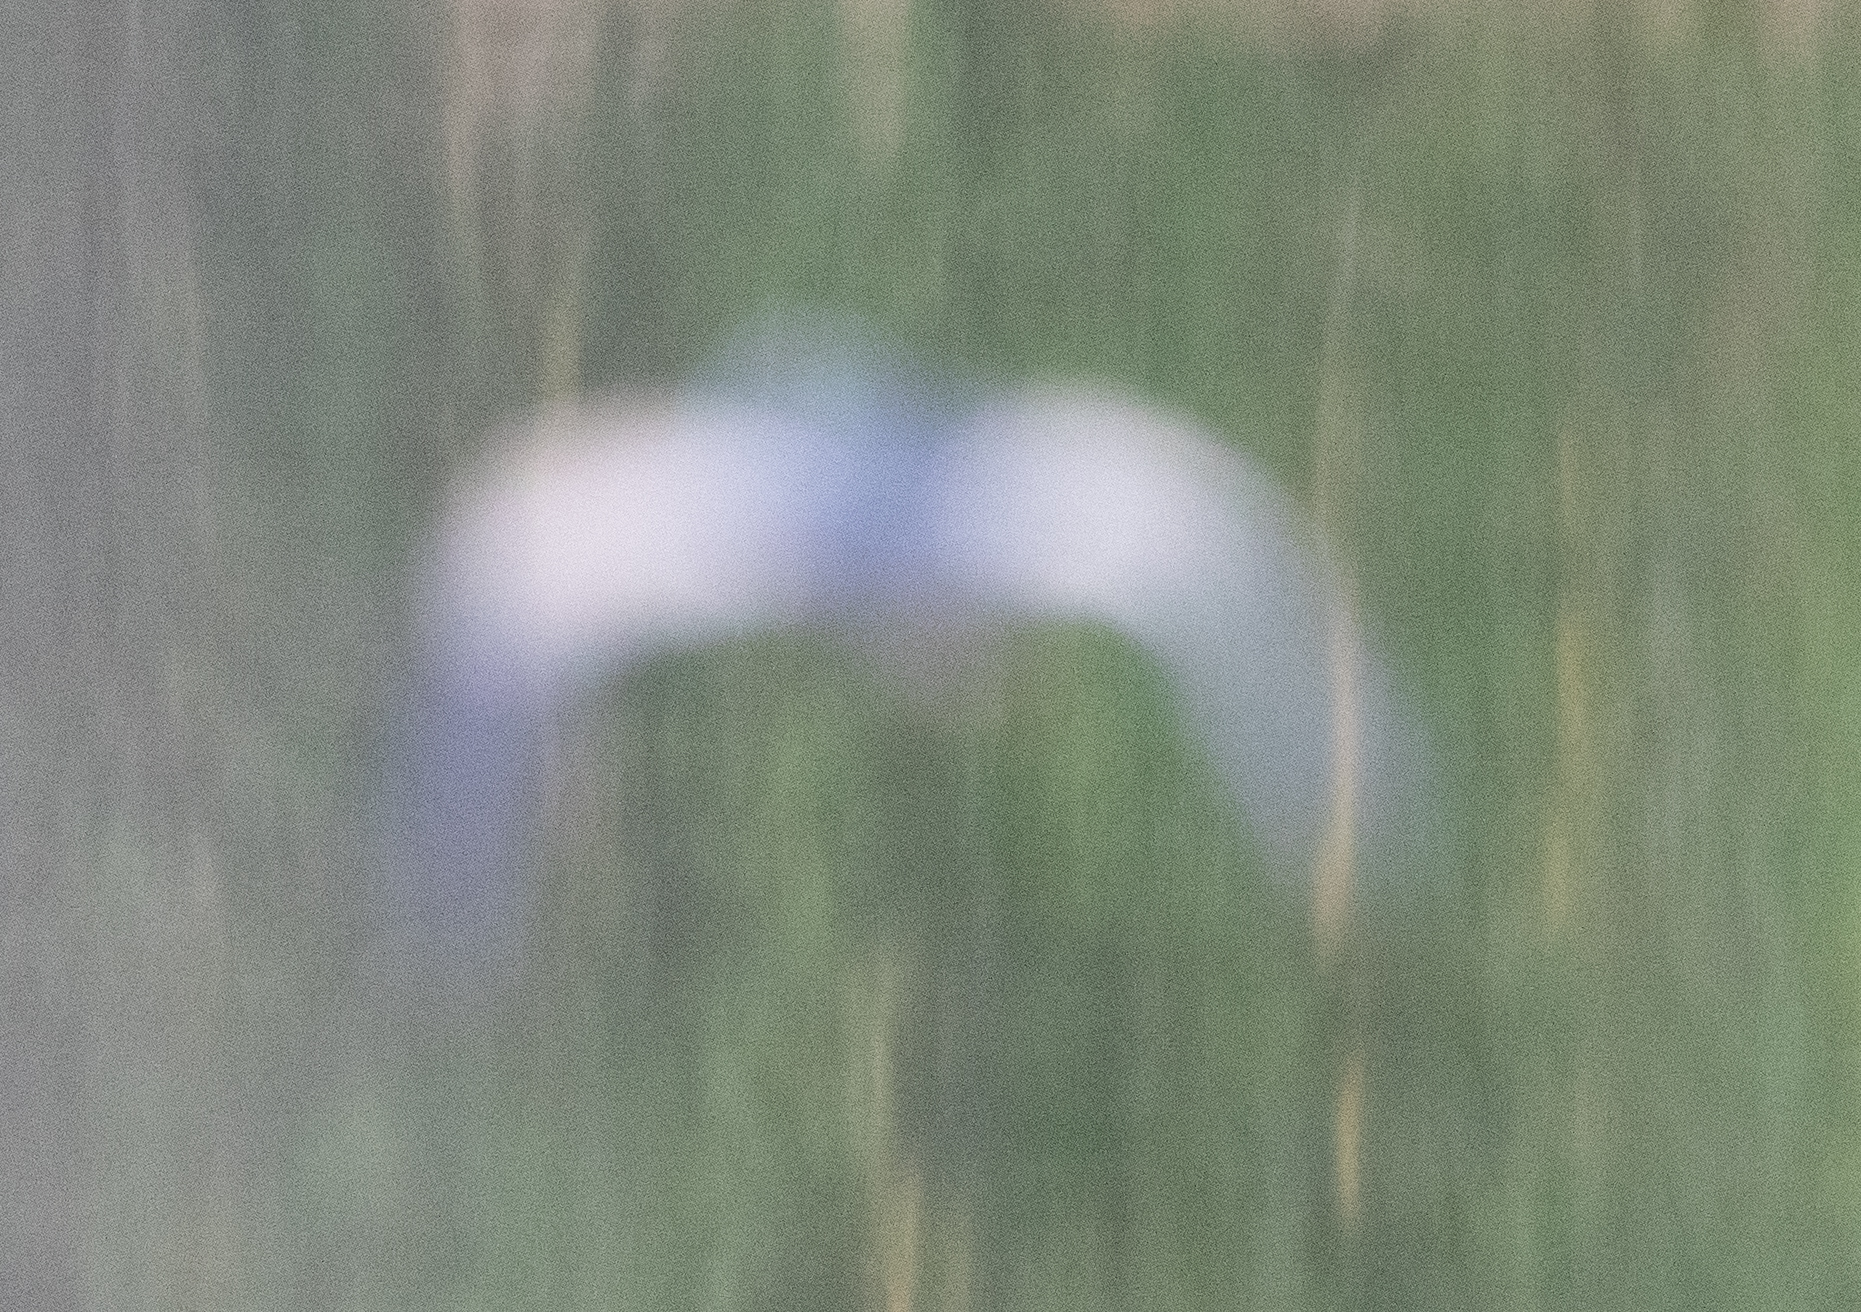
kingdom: Animalia
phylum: Chordata
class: Aves
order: Pelecaniformes
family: Ardeidae
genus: Ixobrychus
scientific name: Ixobrychus minutus
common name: Little bittern
